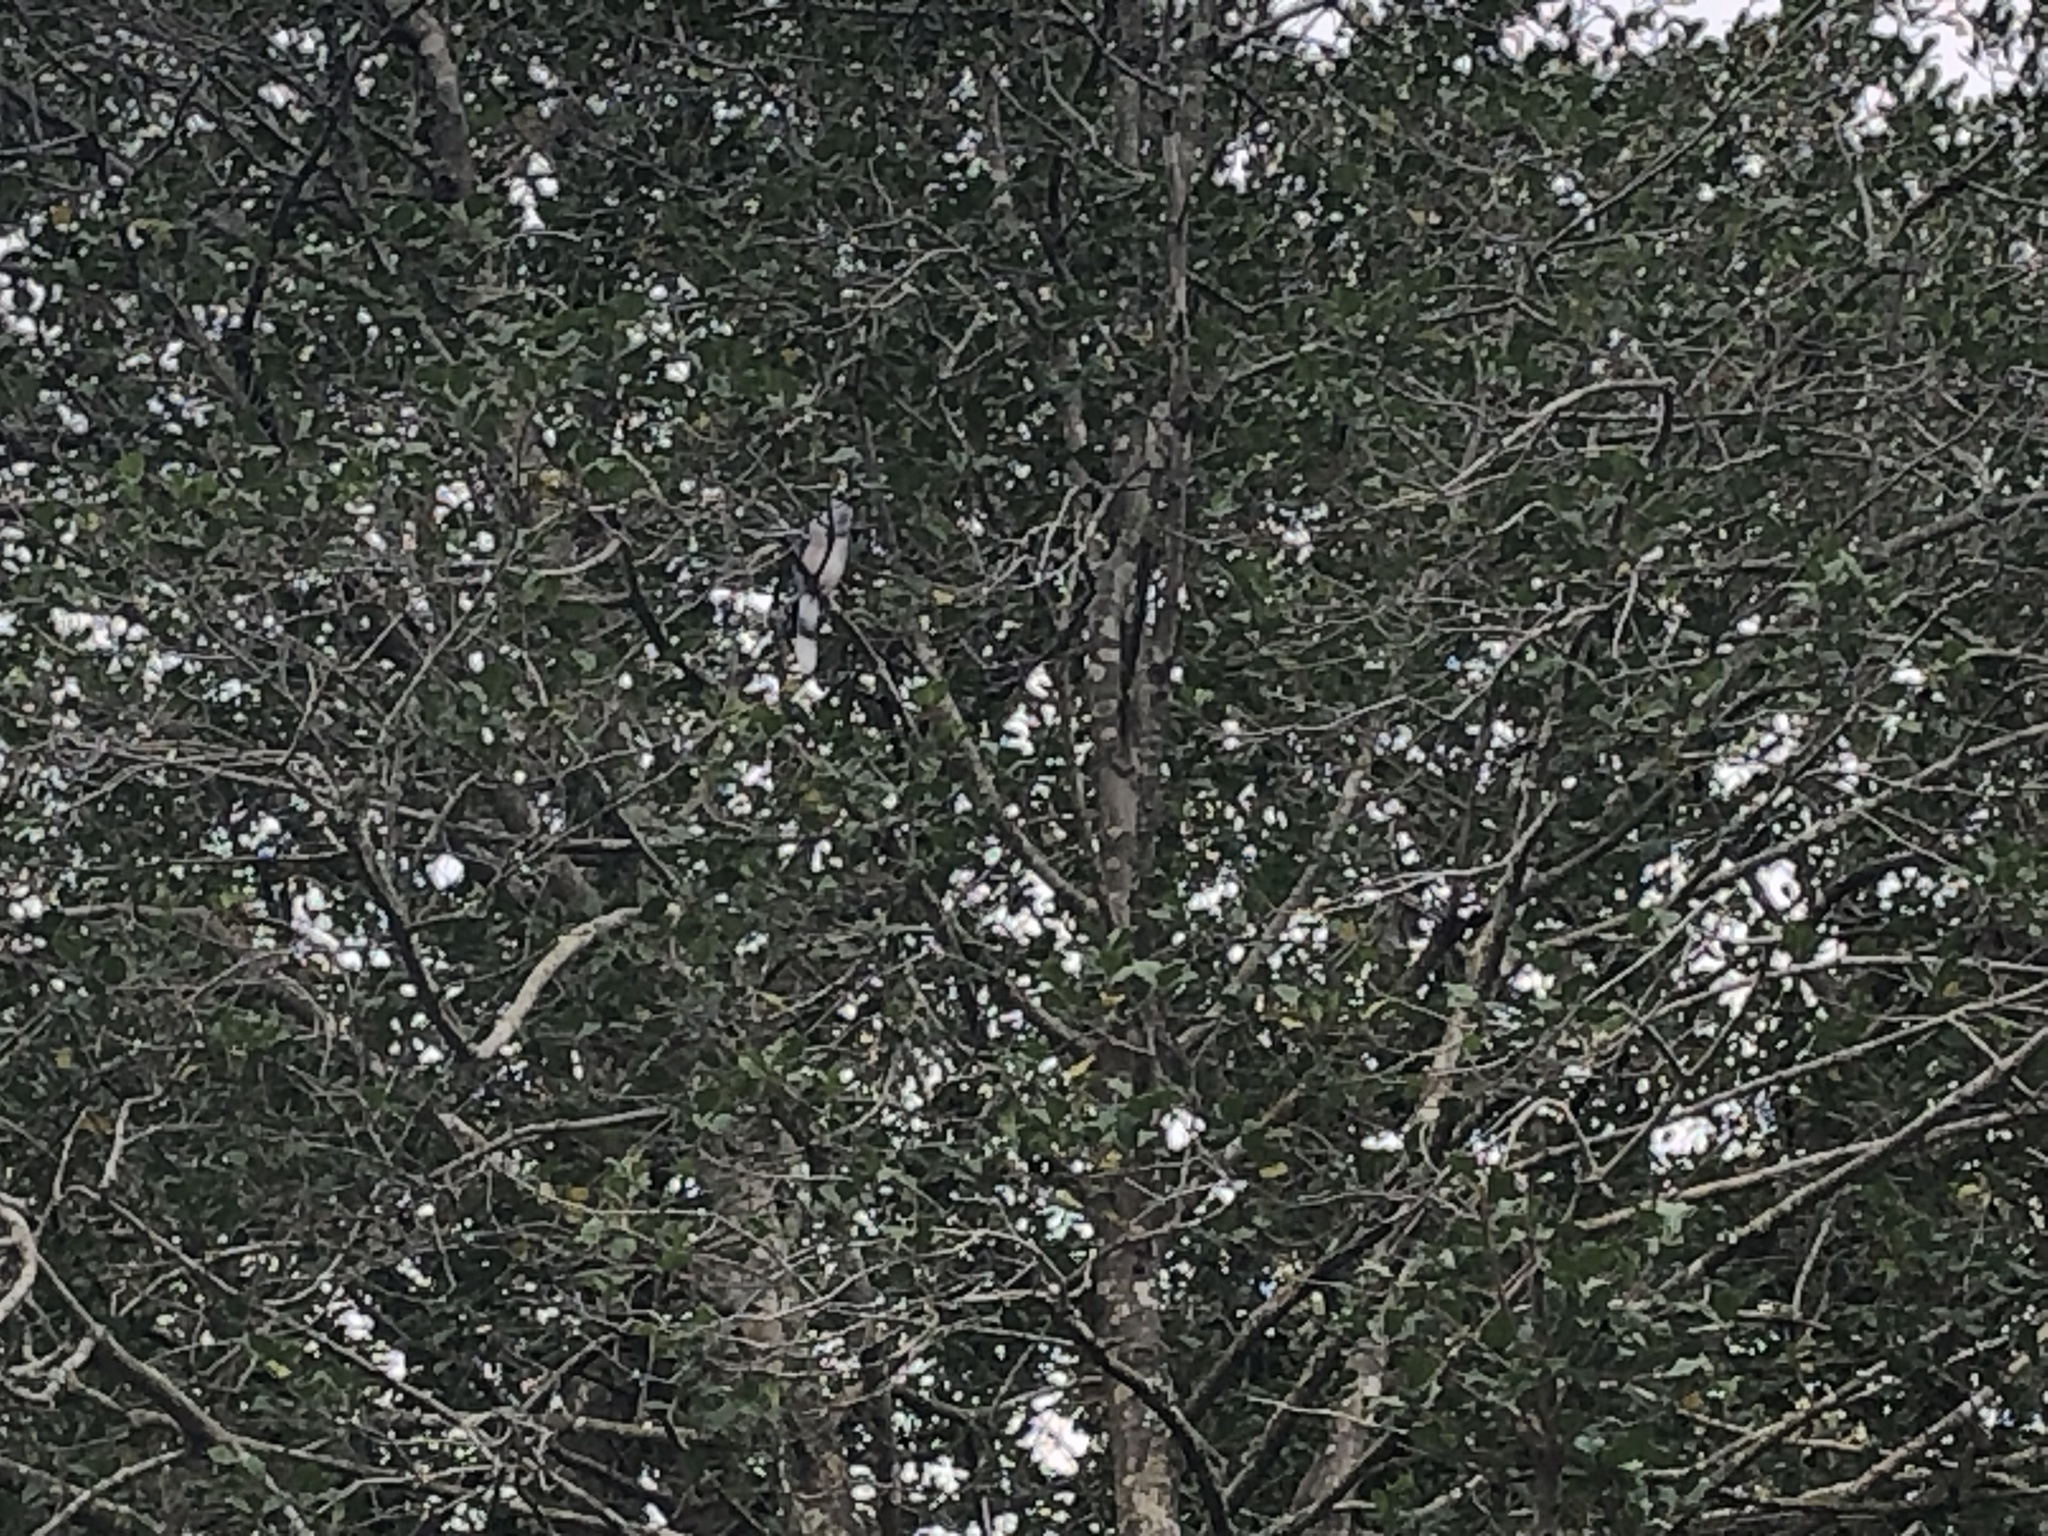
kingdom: Animalia
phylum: Chordata
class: Aves
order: Passeriformes
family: Corvidae
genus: Cyanocitta
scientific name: Cyanocitta cristata
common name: Blue jay
